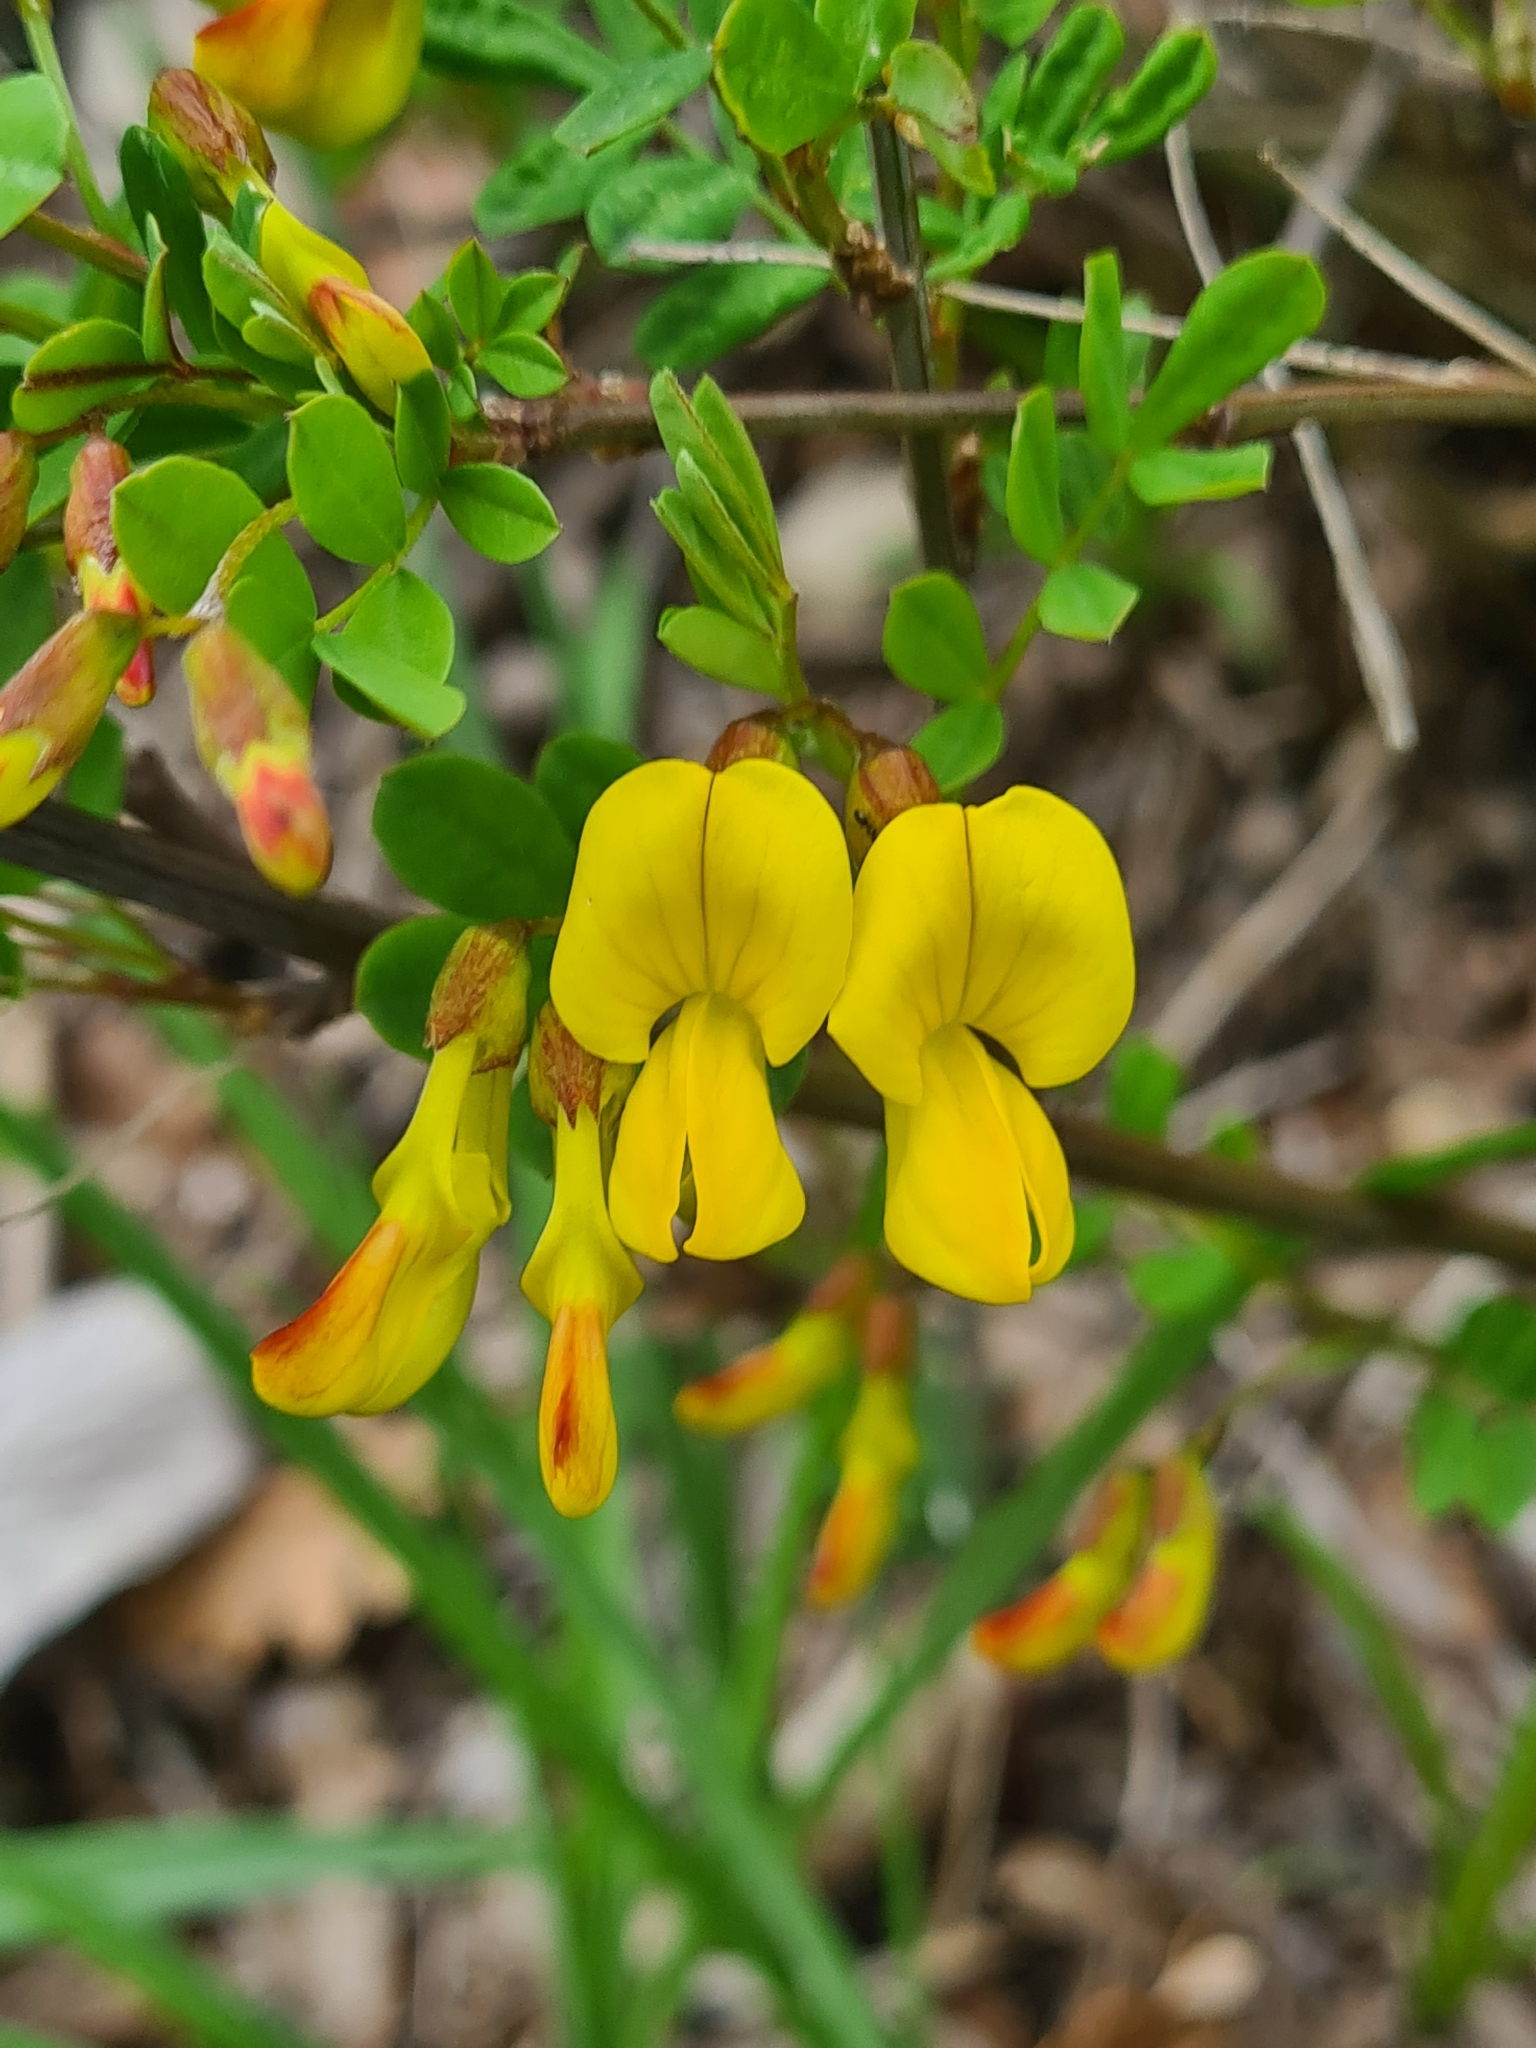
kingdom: Plantae
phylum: Tracheophyta
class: Magnoliopsida
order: Fabales
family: Fabaceae
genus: Hippocrepis
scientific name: Hippocrepis emerus
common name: Scorpion senna
